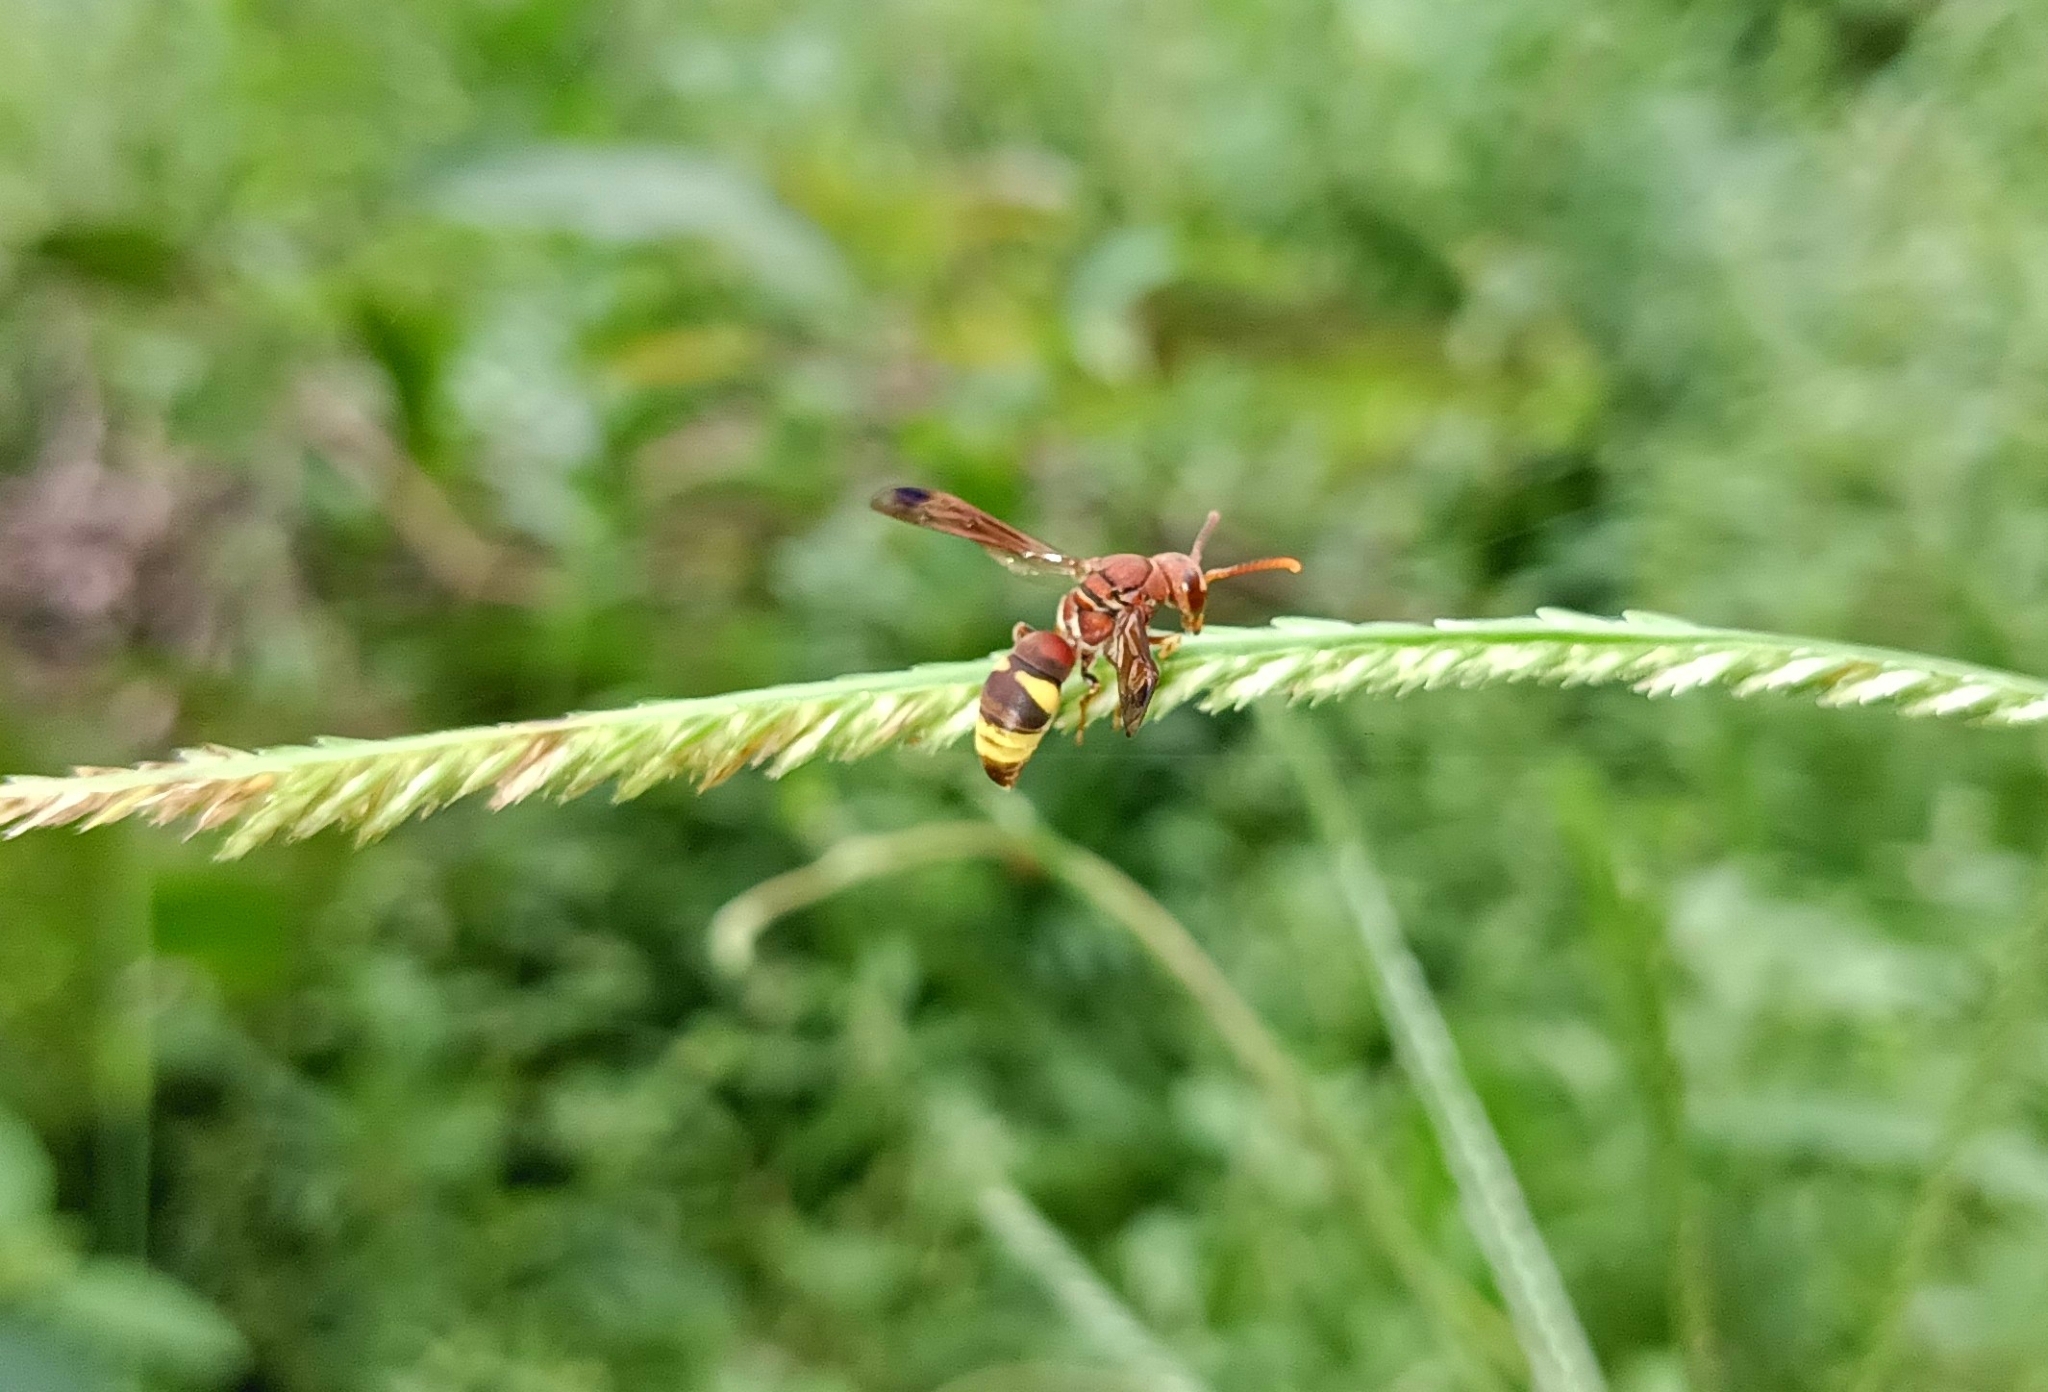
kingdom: Animalia
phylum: Arthropoda
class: Insecta
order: Hymenoptera
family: Eumenidae
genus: Antodynerus
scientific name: Antodynerus punctatipennis
